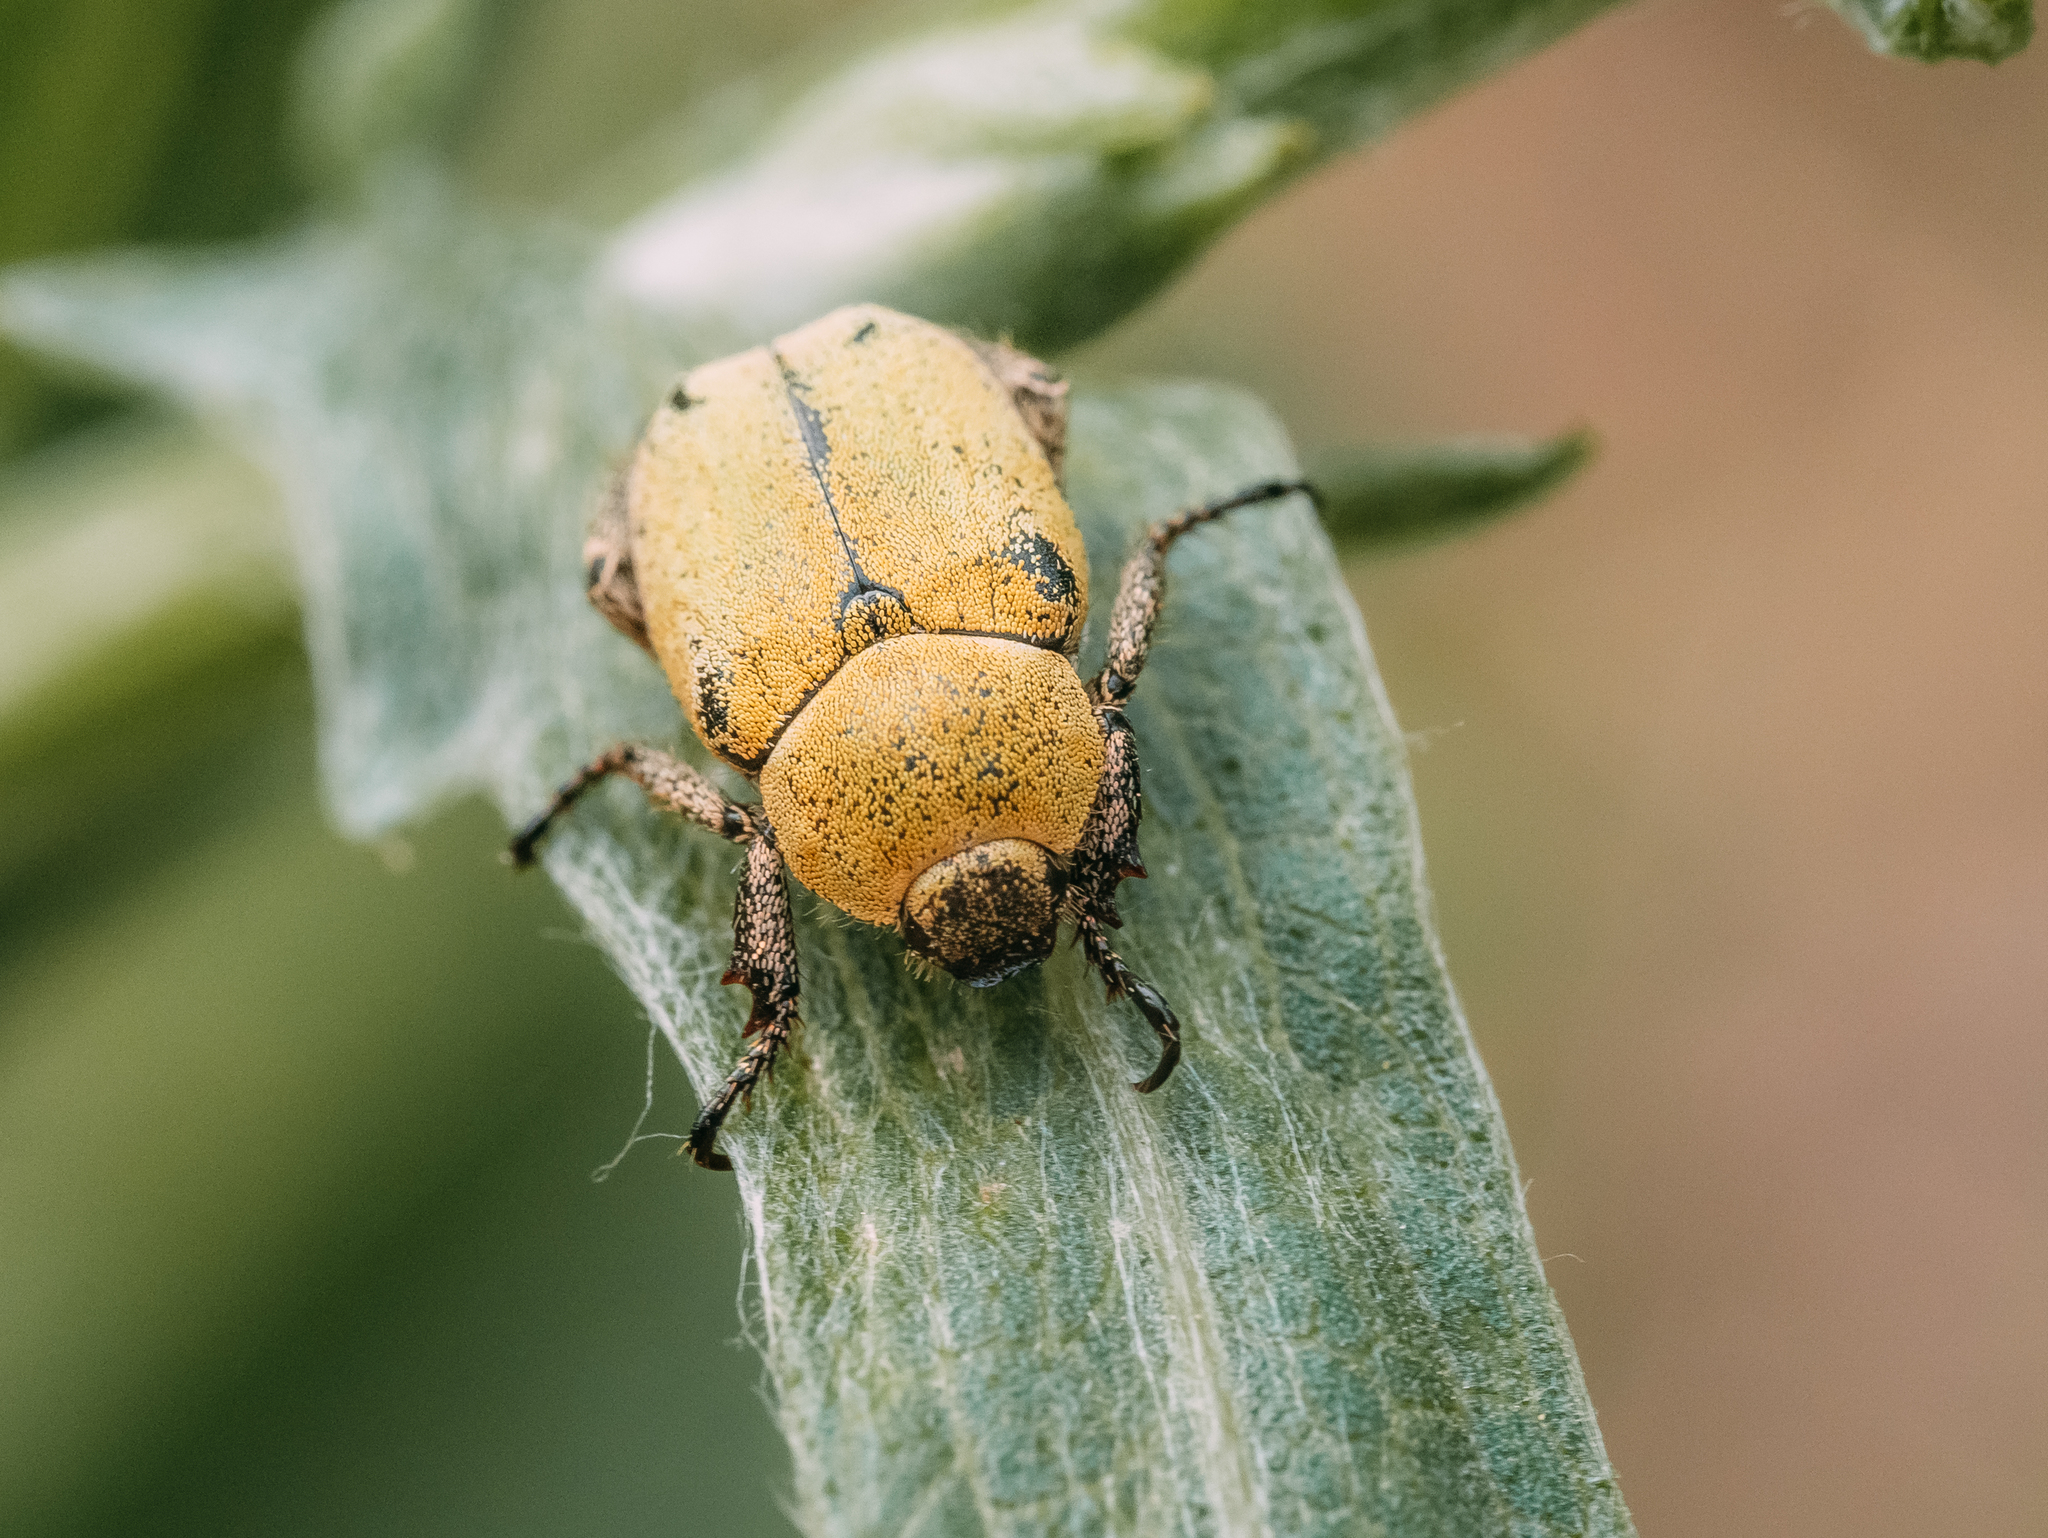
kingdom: Animalia
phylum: Arthropoda
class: Insecta
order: Coleoptera
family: Scarabaeidae
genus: Hoplia
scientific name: Hoplia parvula
